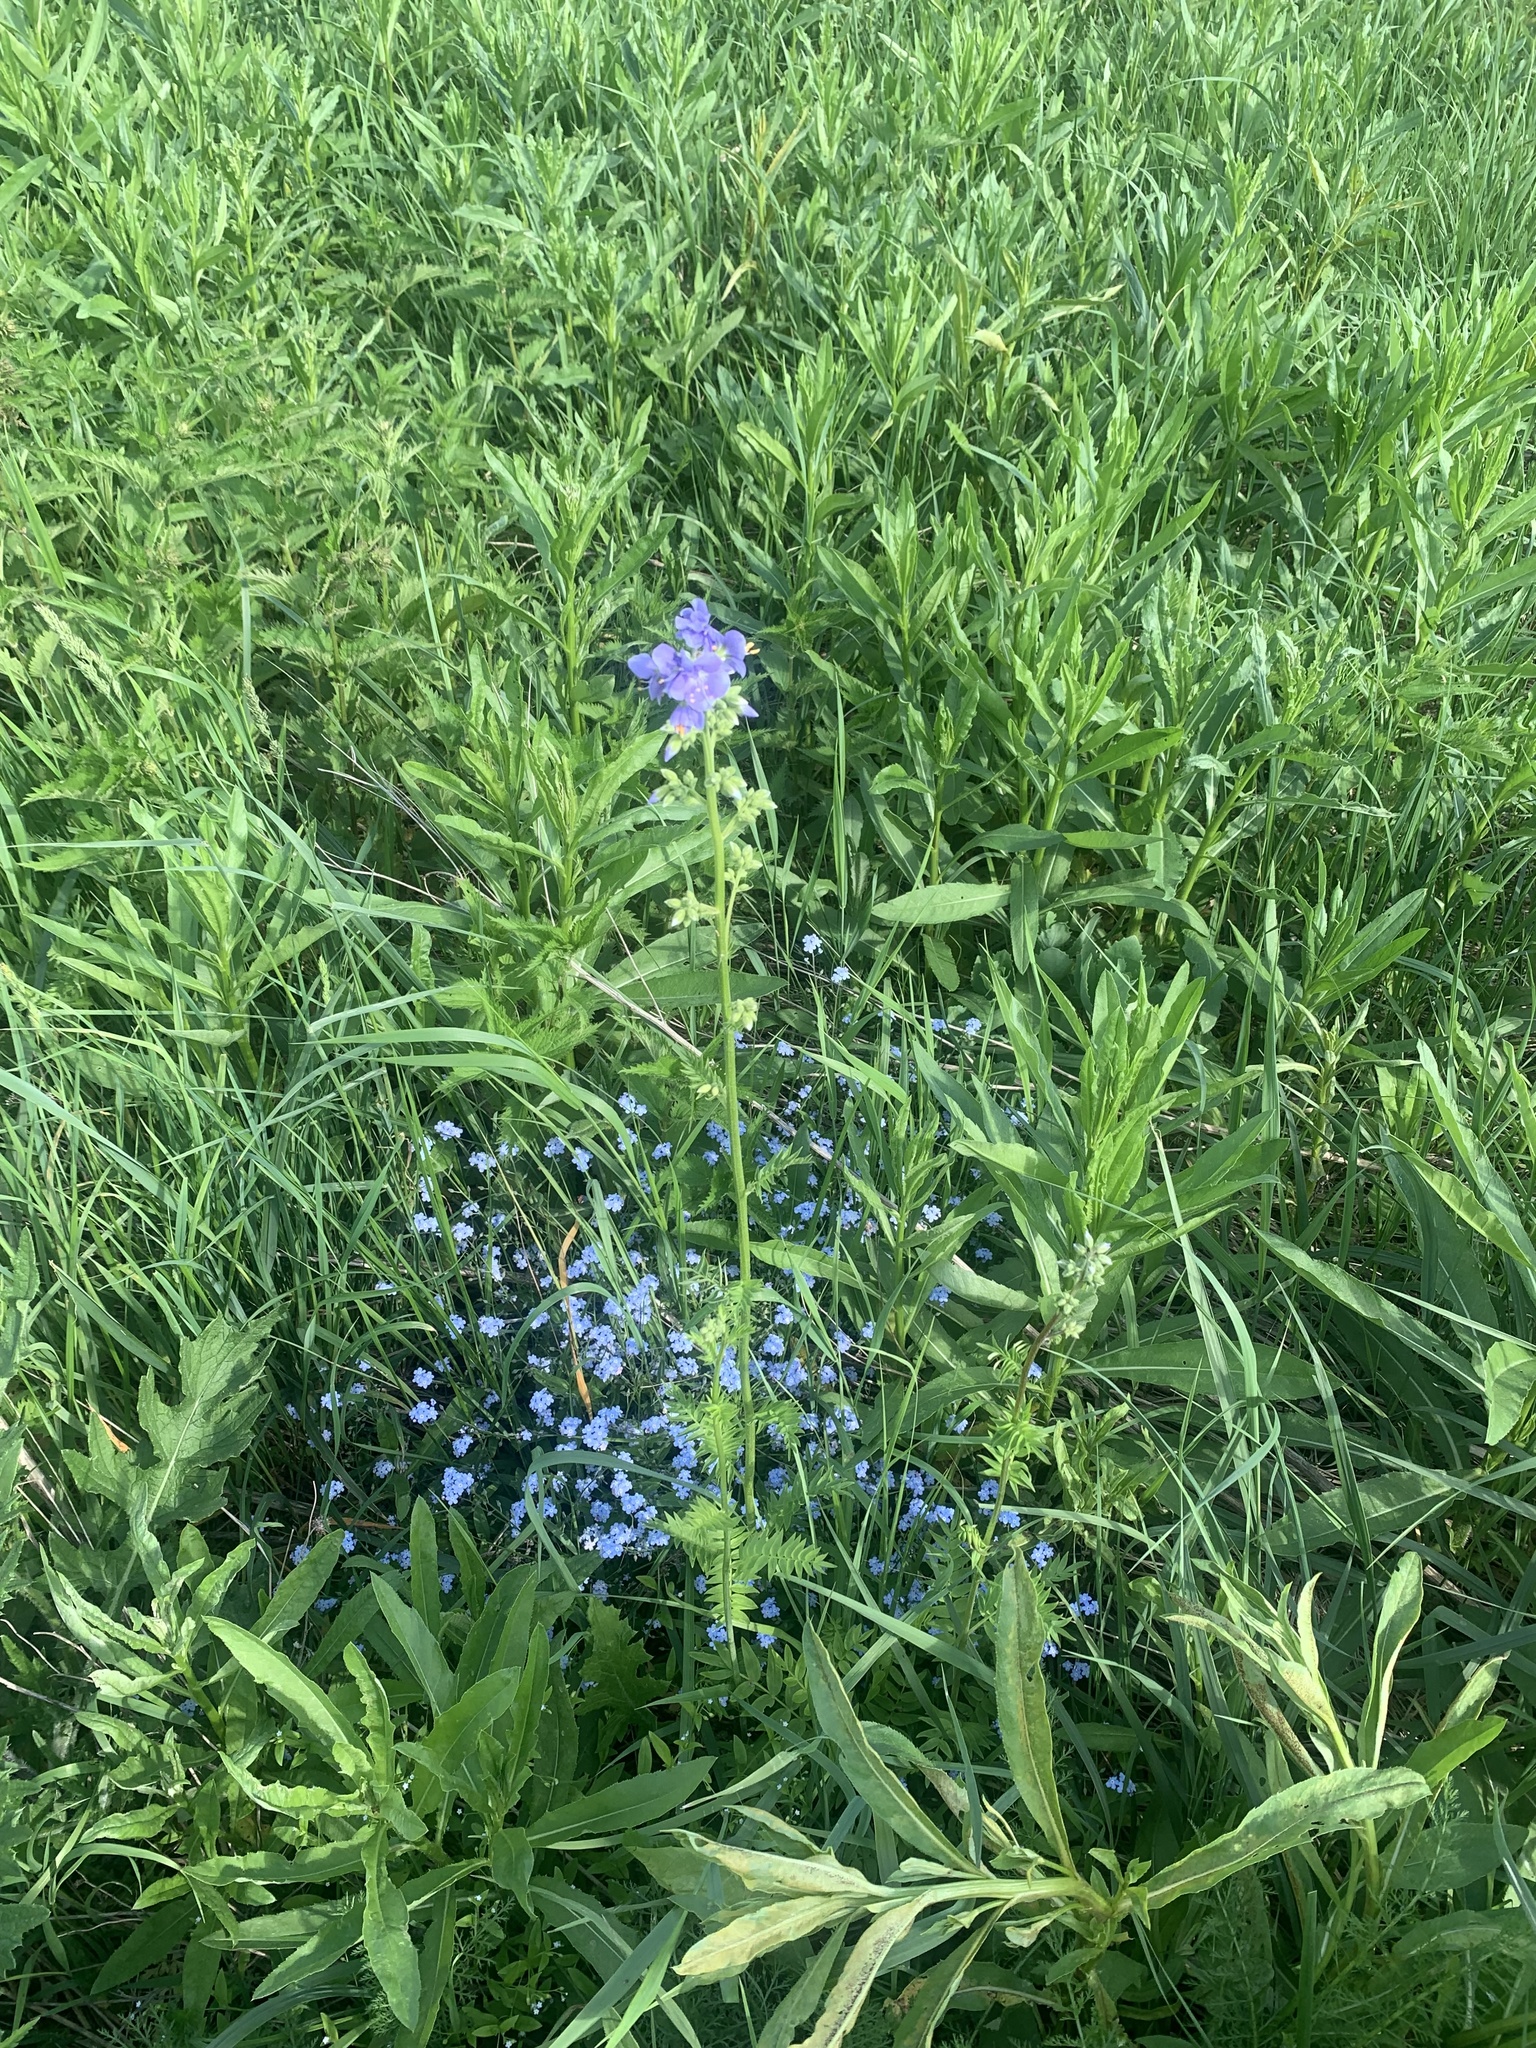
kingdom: Plantae
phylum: Tracheophyta
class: Magnoliopsida
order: Boraginales
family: Boraginaceae
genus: Myosotis
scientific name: Myosotis sylvatica
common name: Wood forget-me-not
